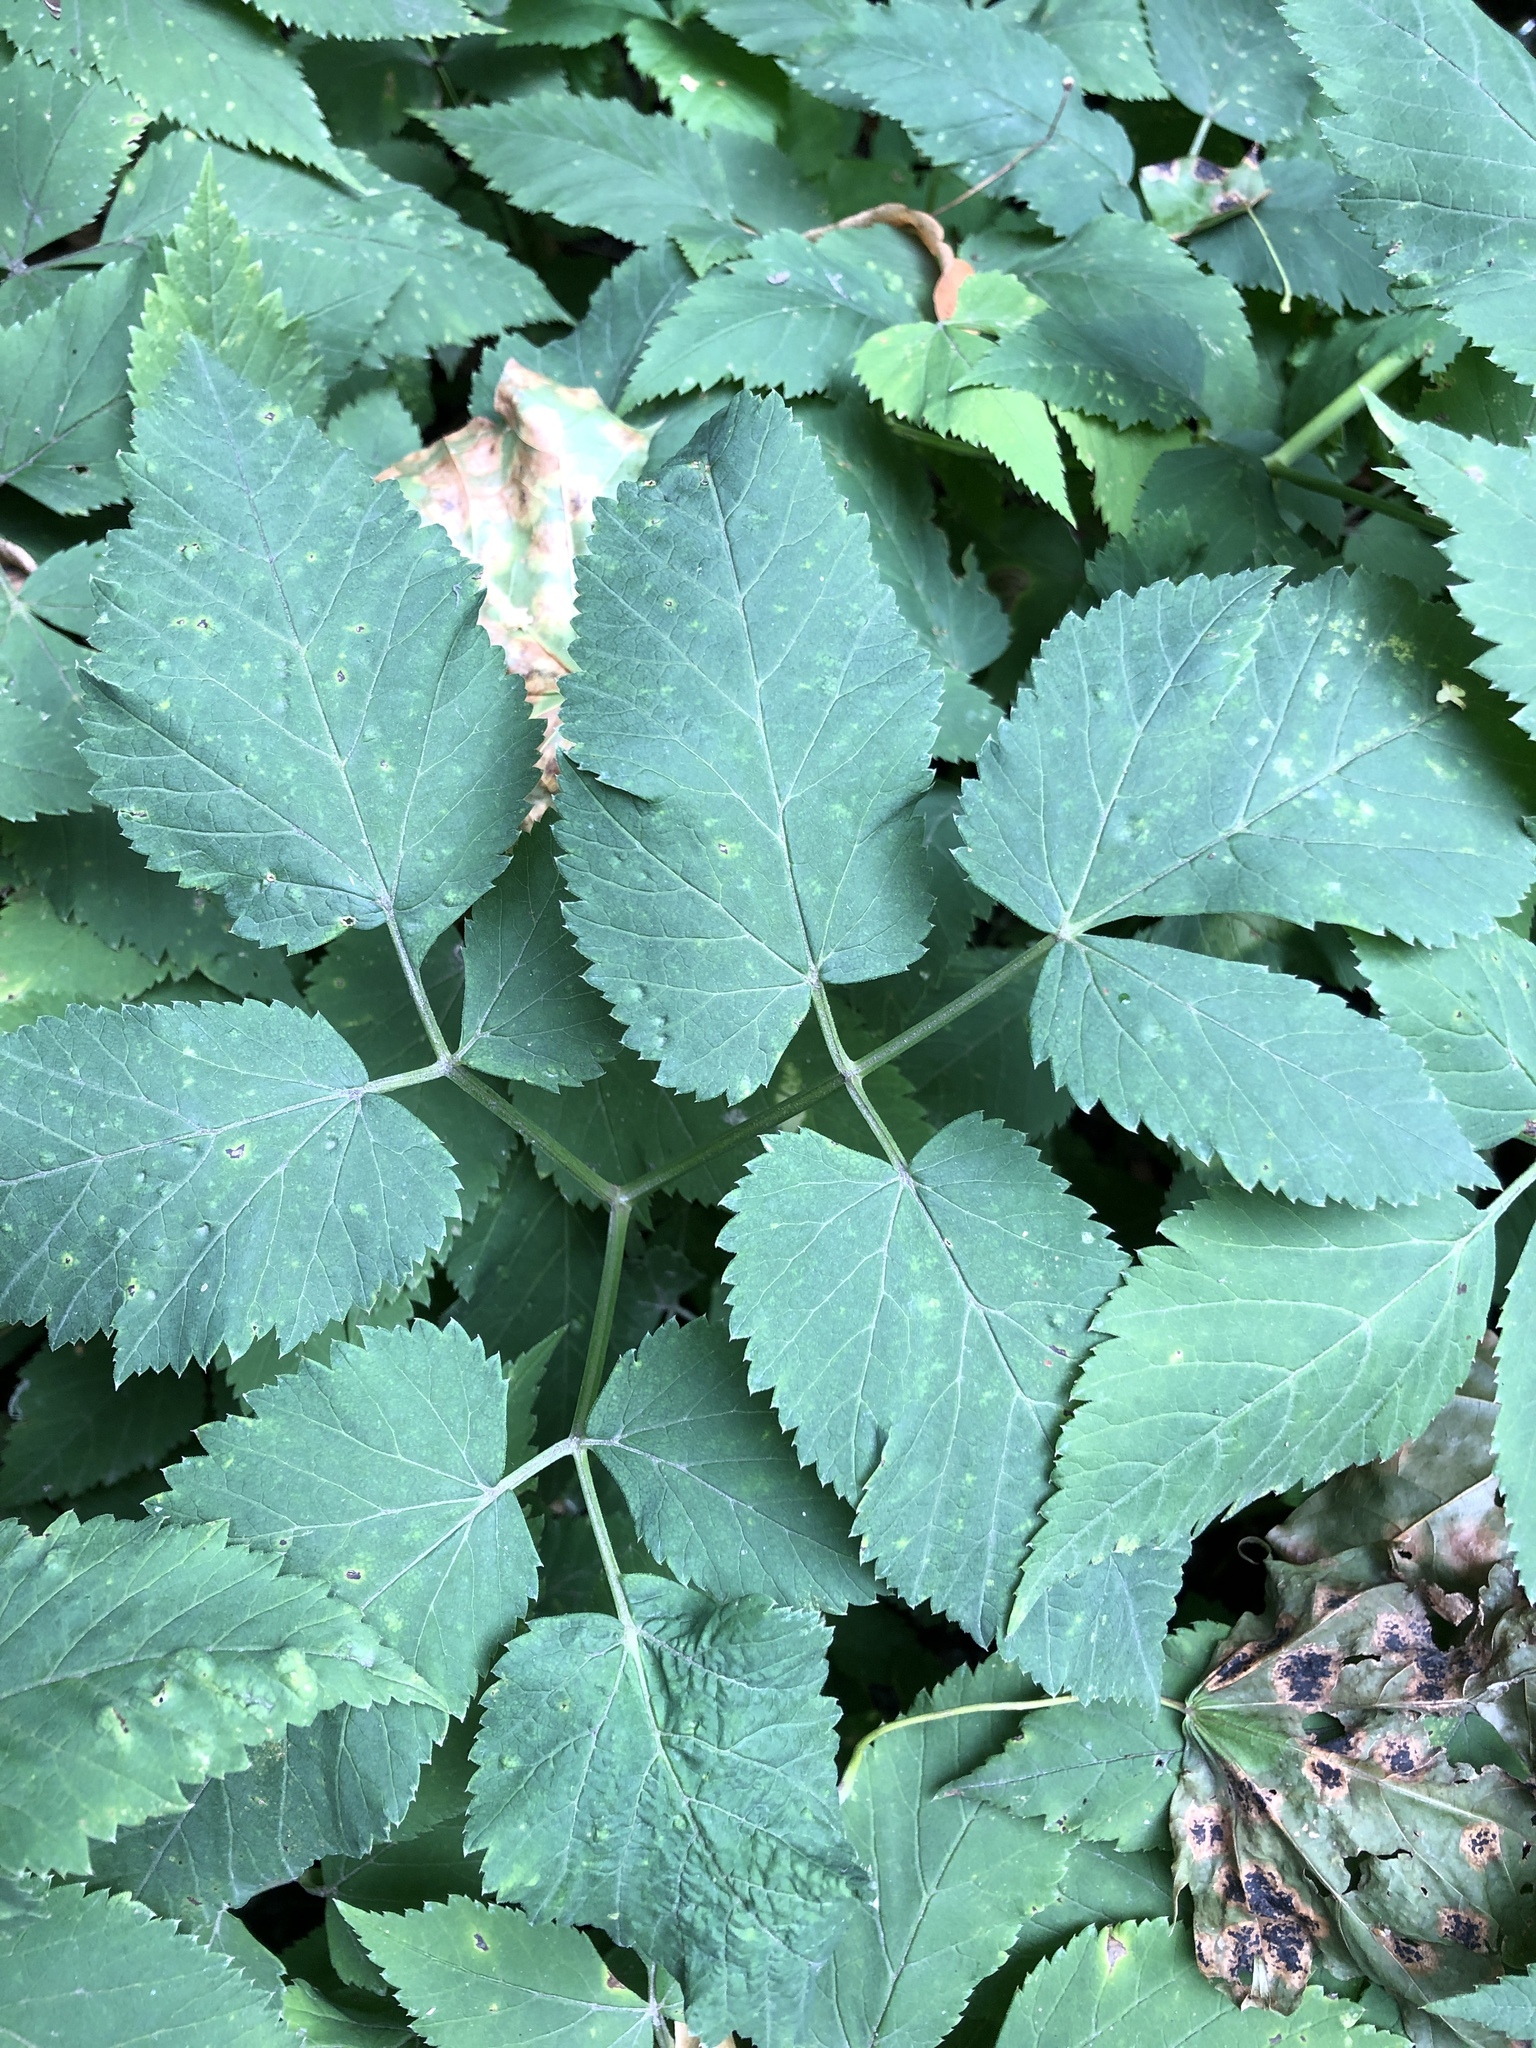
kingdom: Plantae
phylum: Tracheophyta
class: Magnoliopsida
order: Apiales
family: Apiaceae
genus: Aegopodium
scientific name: Aegopodium podagraria
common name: Ground-elder
